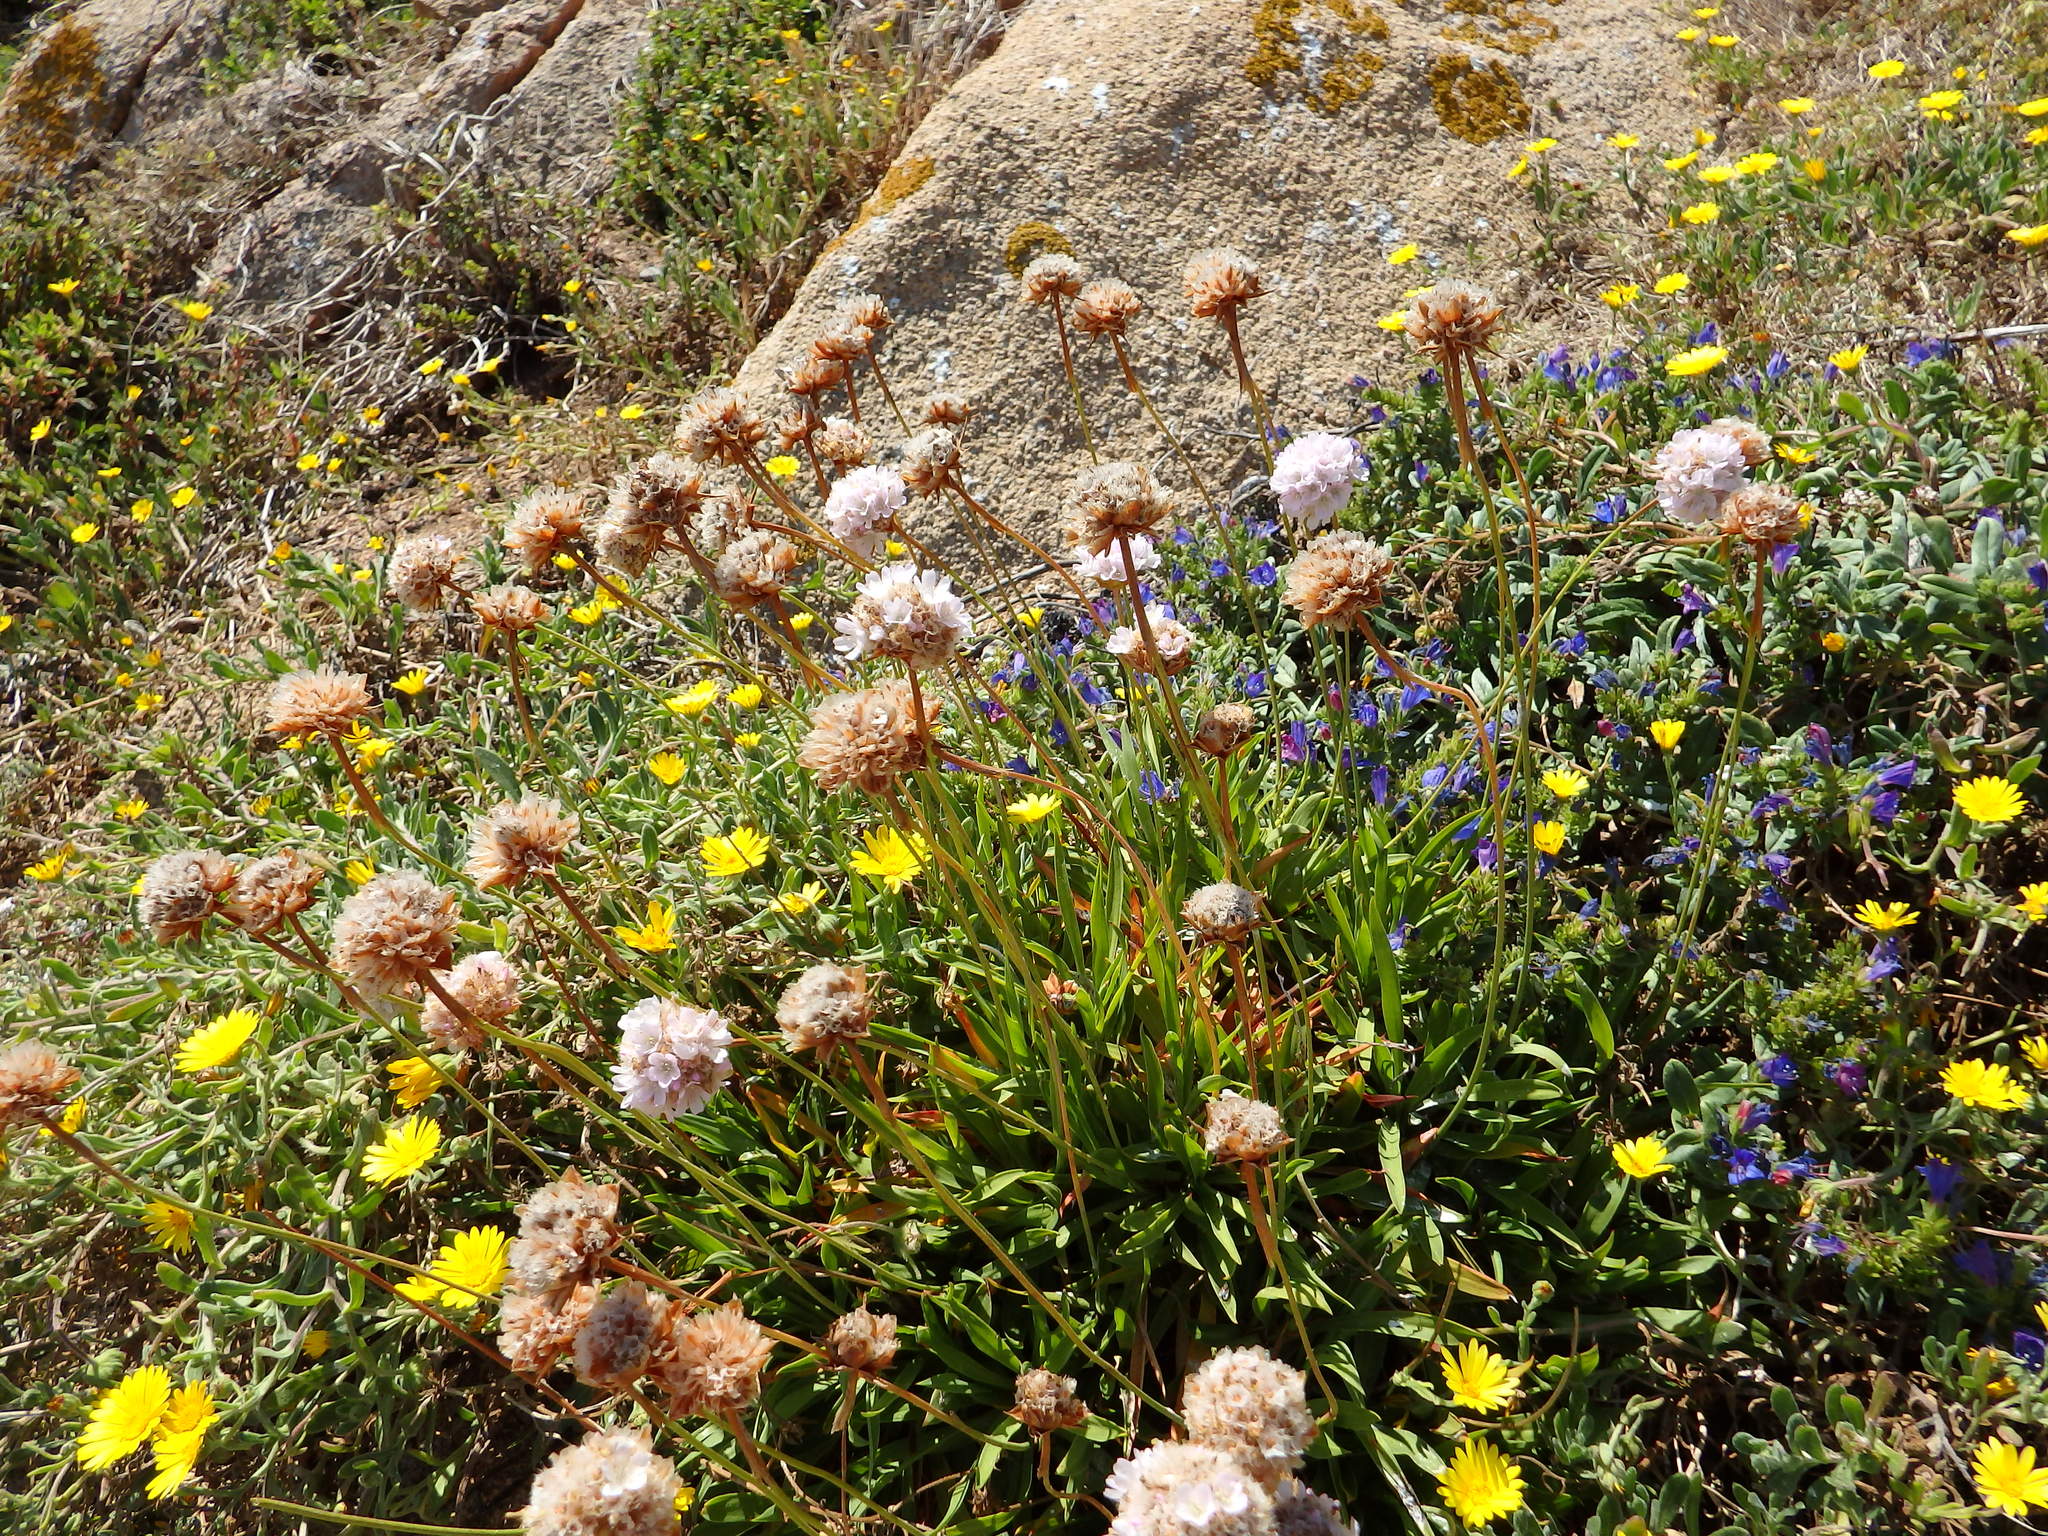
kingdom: Plantae
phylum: Tracheophyta
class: Magnoliopsida
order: Caryophyllales
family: Plumbaginaceae
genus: Armeria
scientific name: Armeria berlengensis
